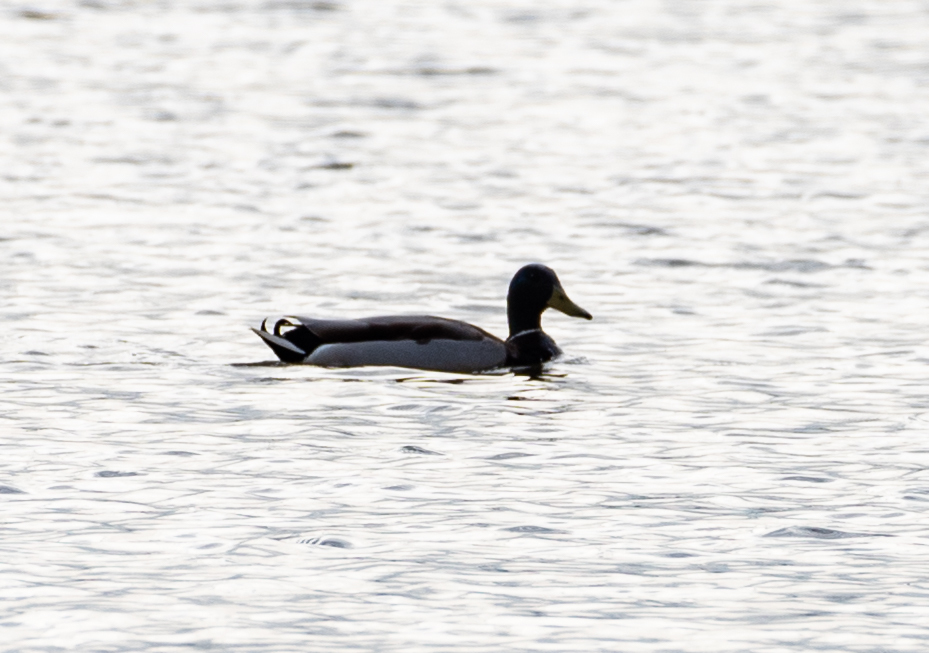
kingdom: Animalia
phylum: Chordata
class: Aves
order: Anseriformes
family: Anatidae
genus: Anas
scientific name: Anas platyrhynchos
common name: Mallard
